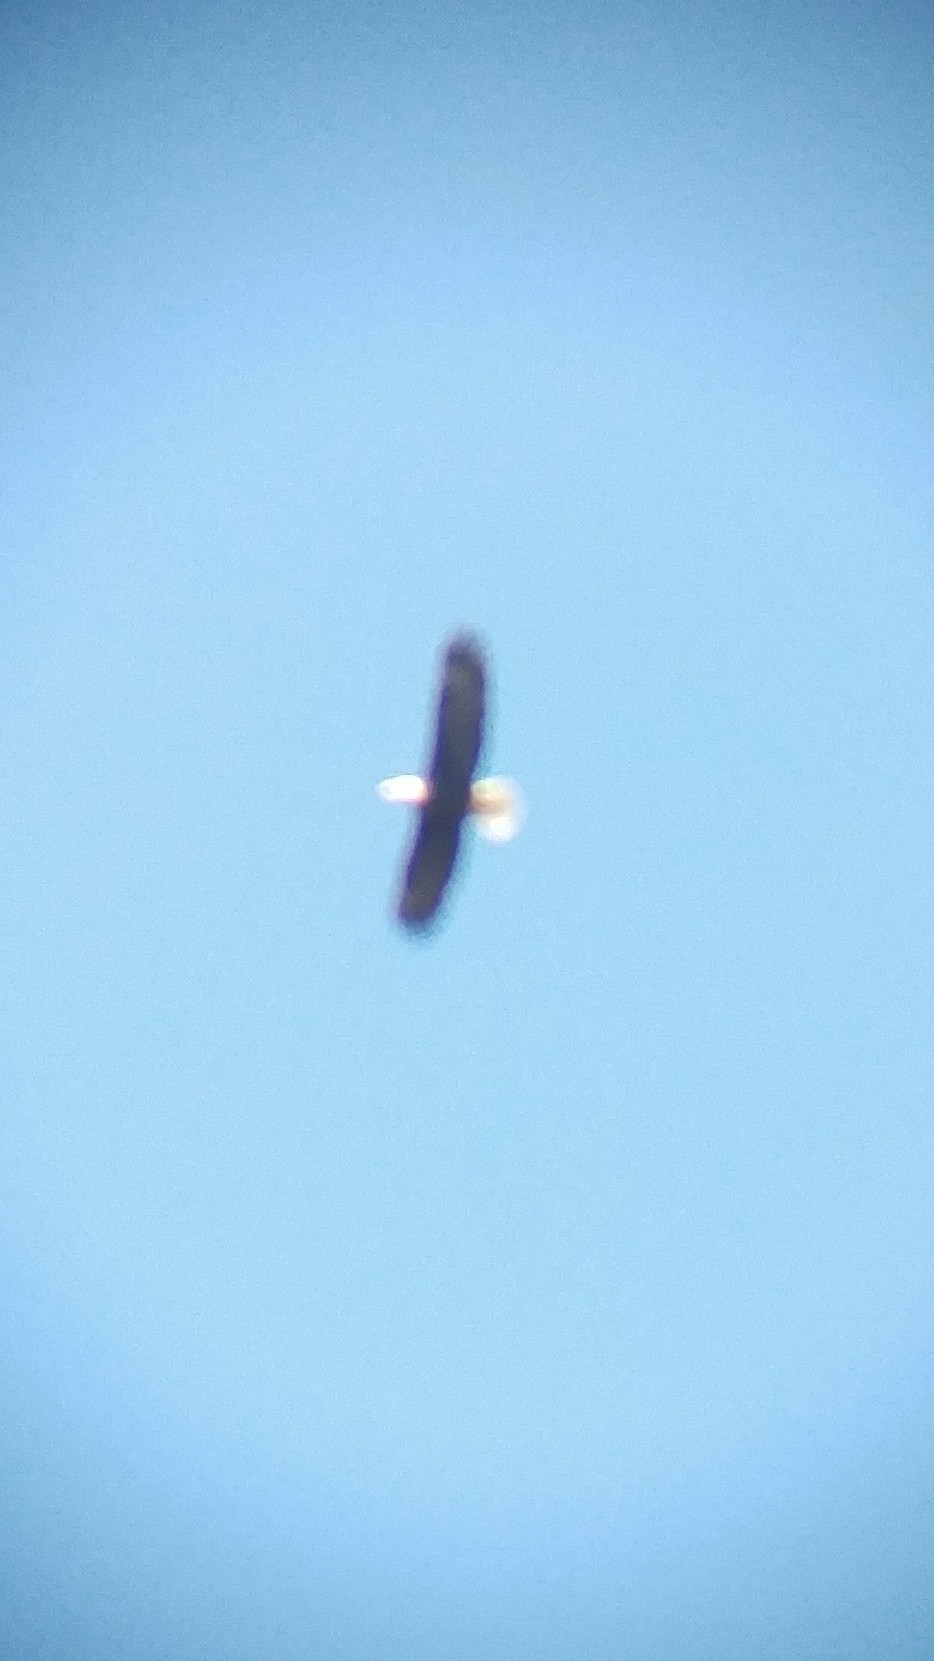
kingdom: Animalia
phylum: Chordata
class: Aves
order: Accipitriformes
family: Accipitridae
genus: Haliaeetus
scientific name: Haliaeetus leucocephalus
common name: Bald eagle
